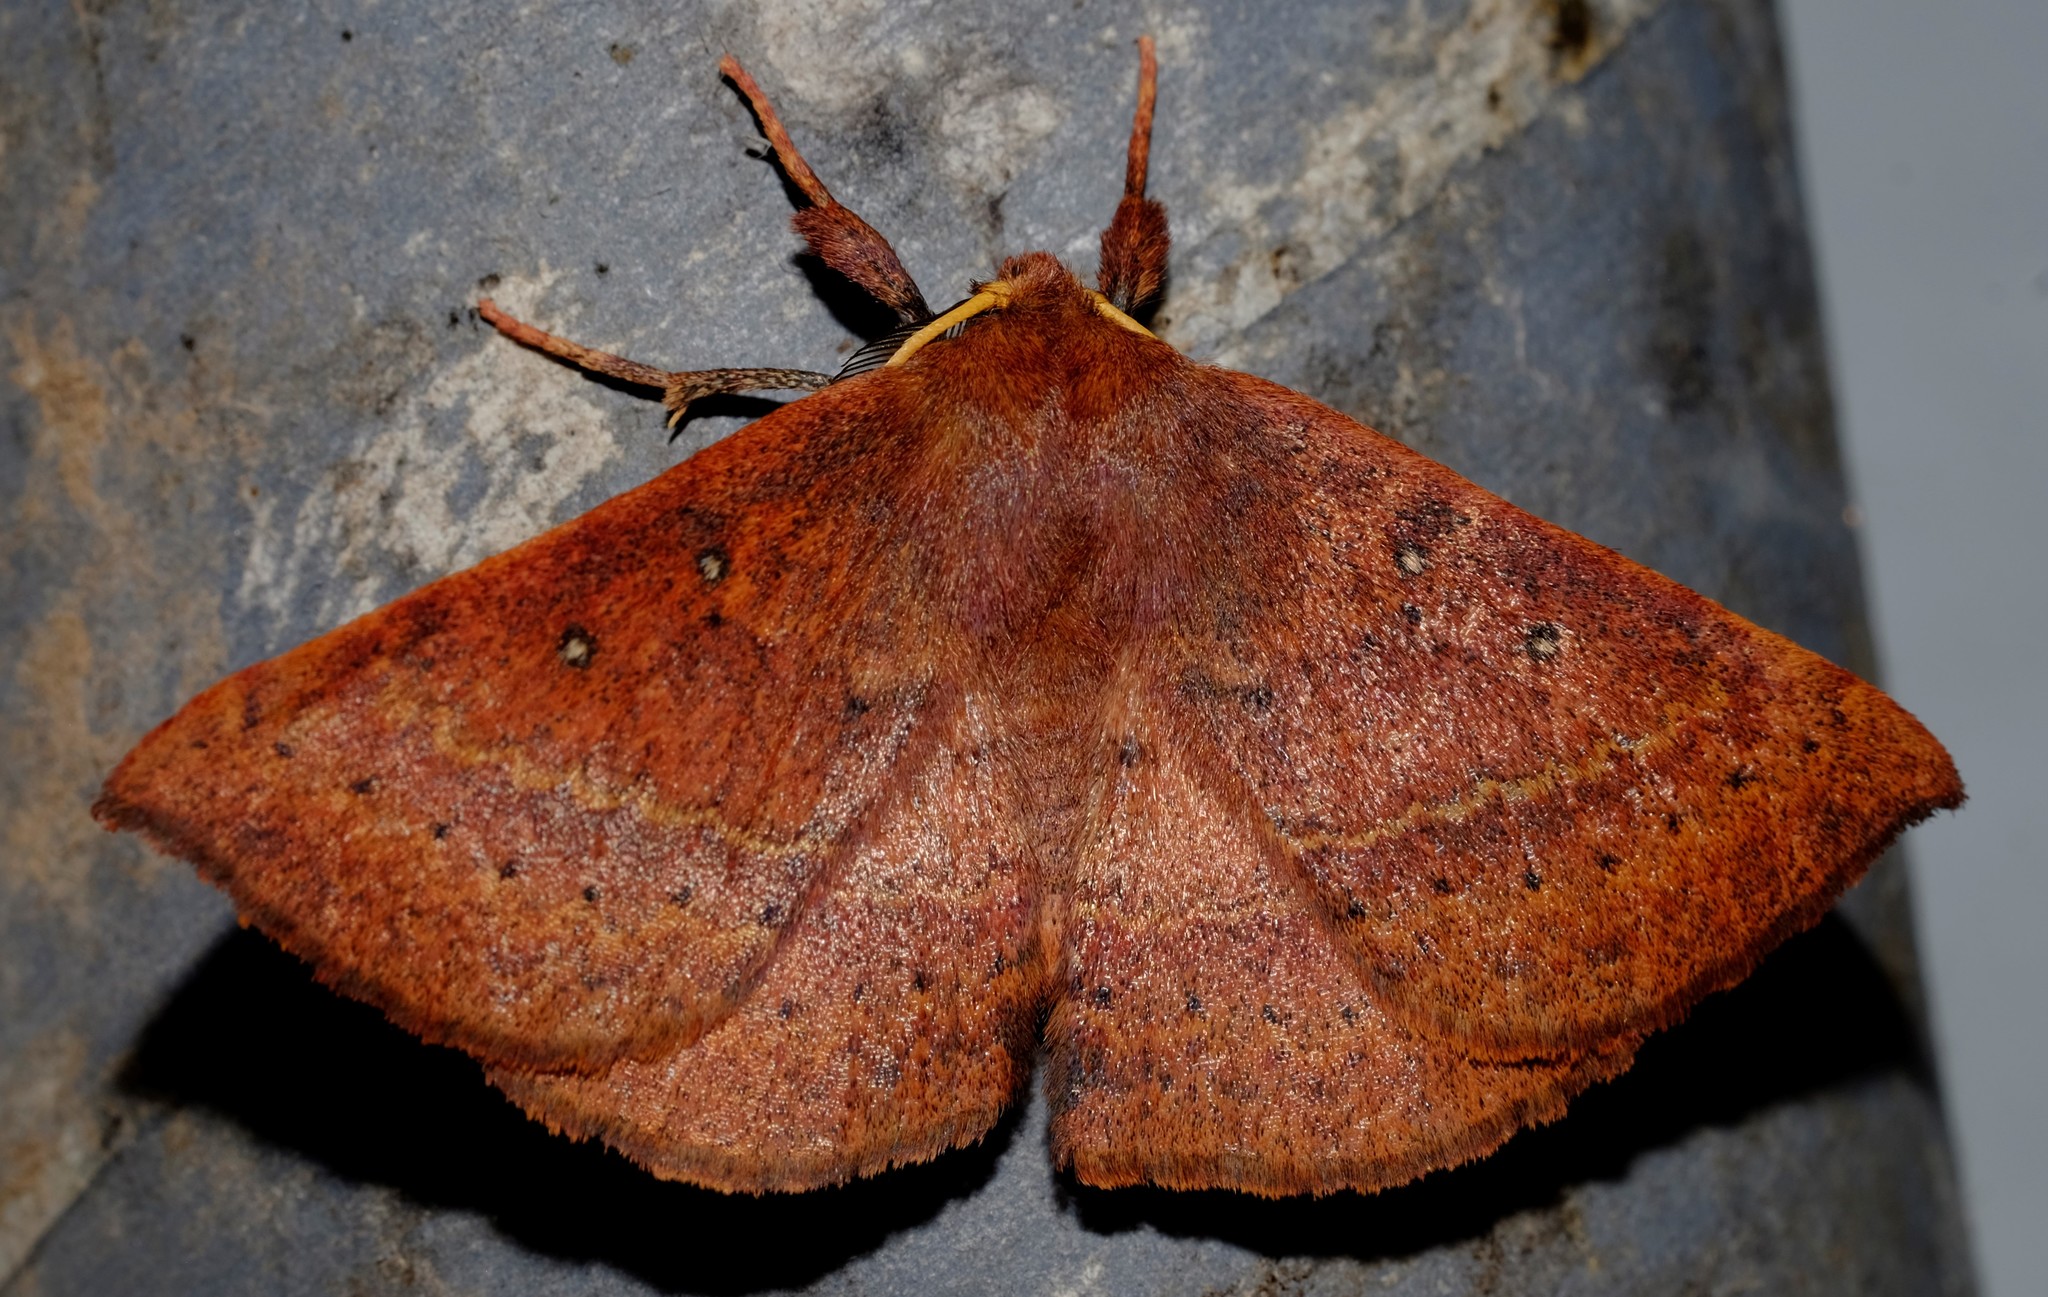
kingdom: Animalia
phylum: Arthropoda
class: Insecta
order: Lepidoptera
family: Anthelidae
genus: Anthela
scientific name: Anthela repleta
